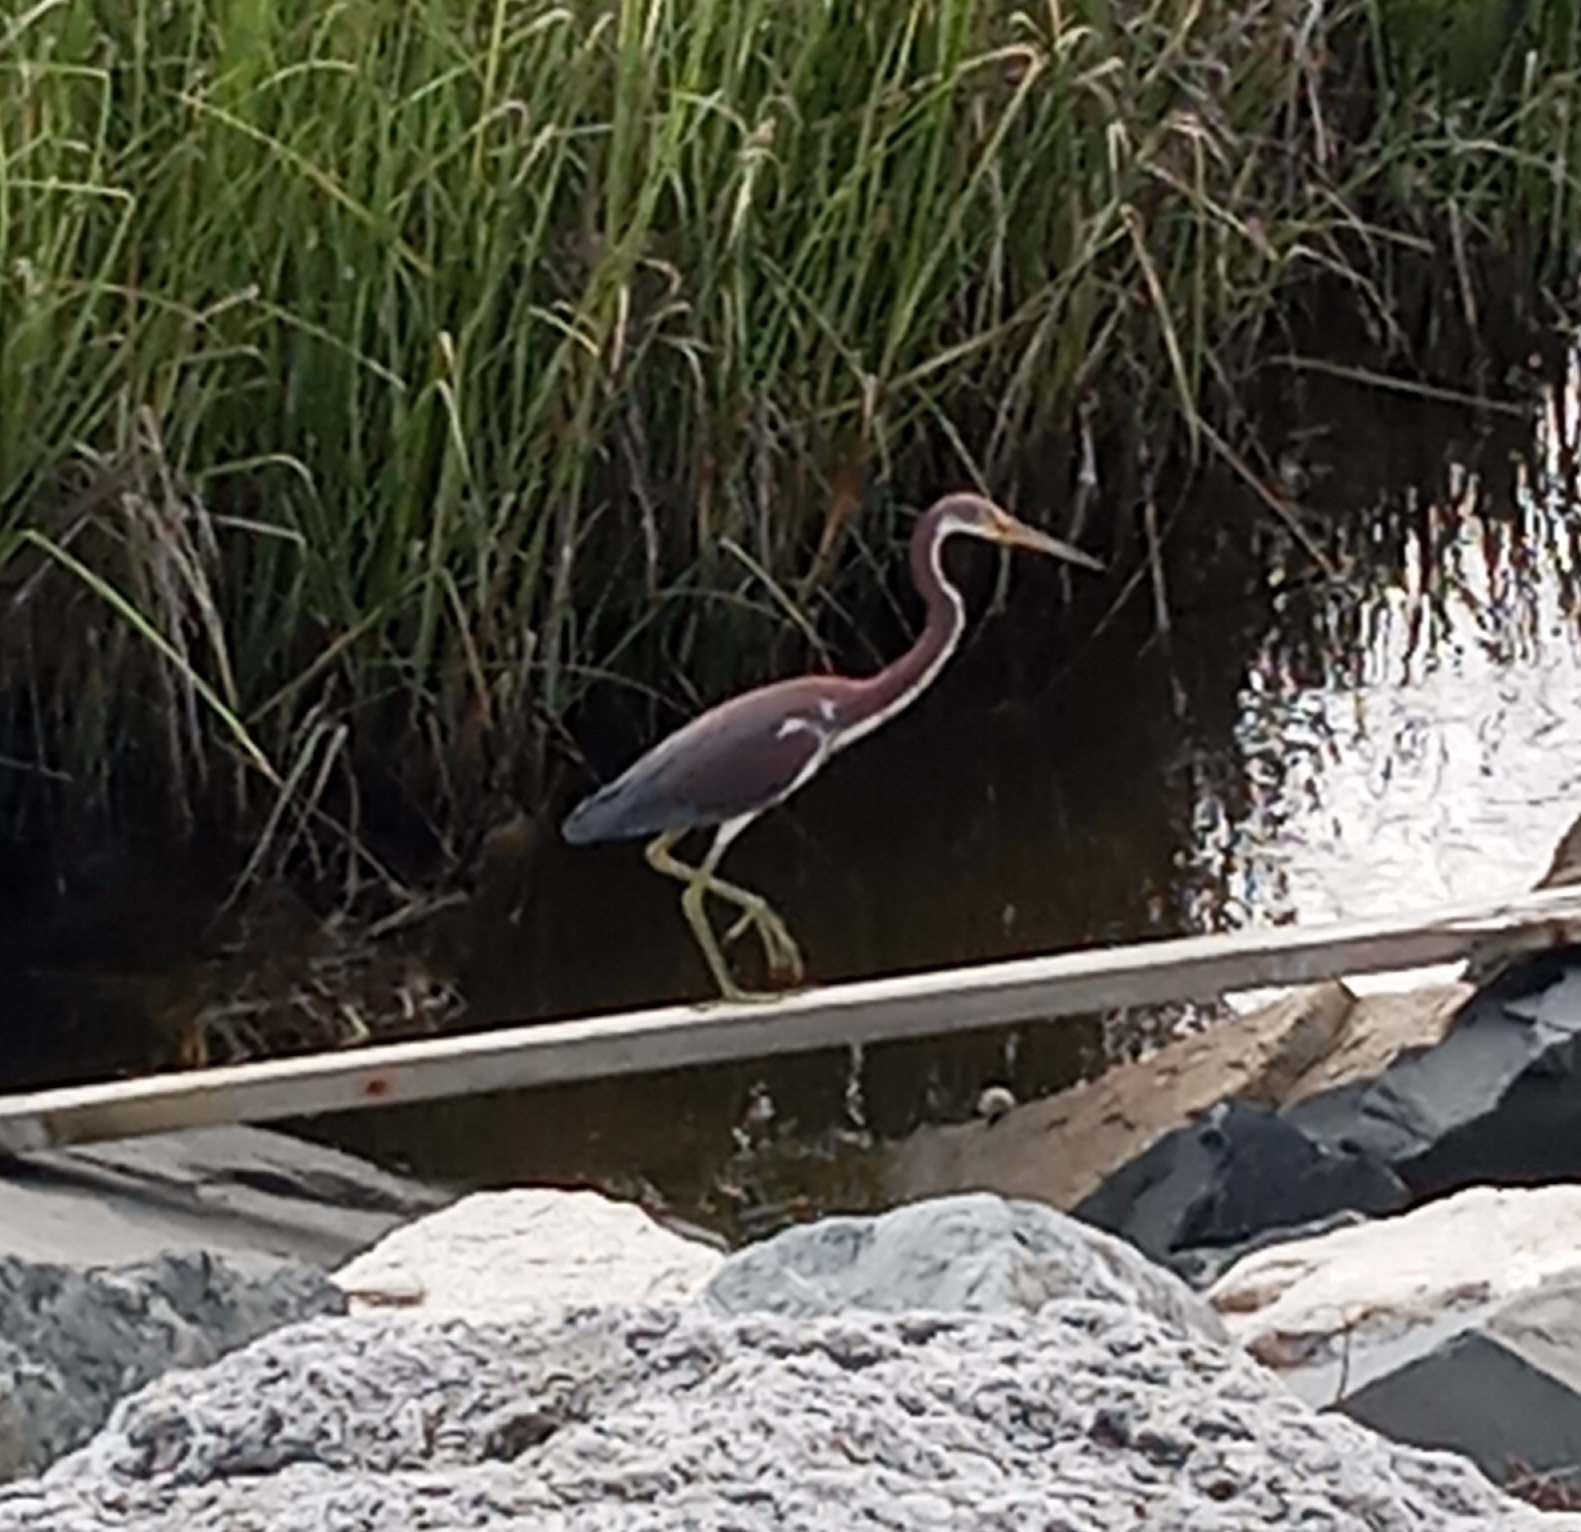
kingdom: Animalia
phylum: Chordata
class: Aves
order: Pelecaniformes
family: Ardeidae
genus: Egretta
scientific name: Egretta tricolor
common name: Tricolored heron
